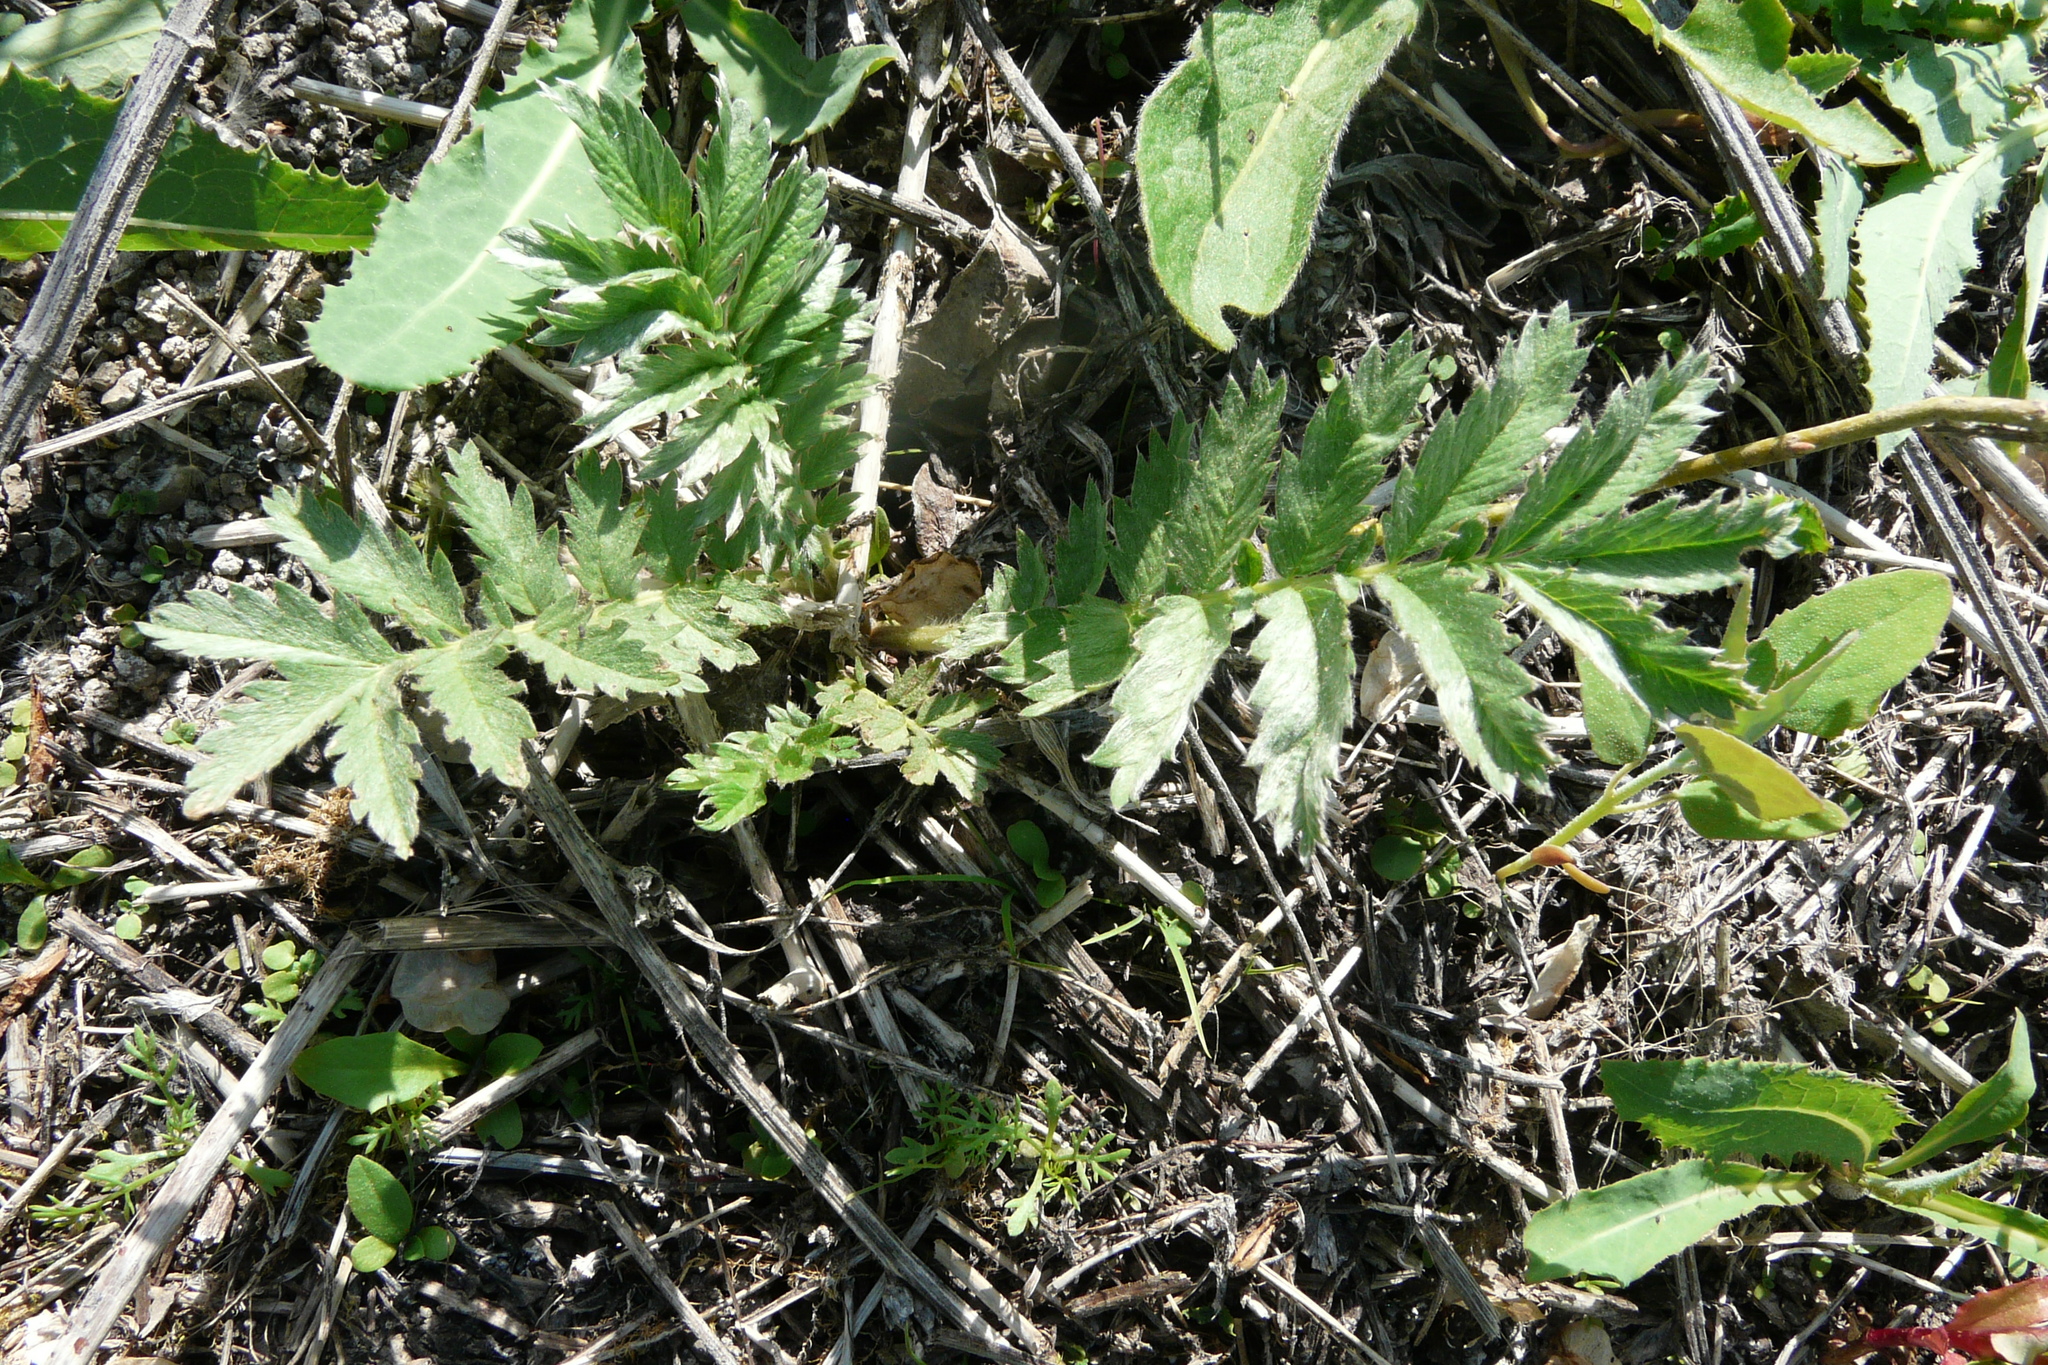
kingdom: Plantae
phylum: Tracheophyta
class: Magnoliopsida
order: Rosales
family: Rosaceae
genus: Argentina
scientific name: Argentina anserina
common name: Common silverweed
